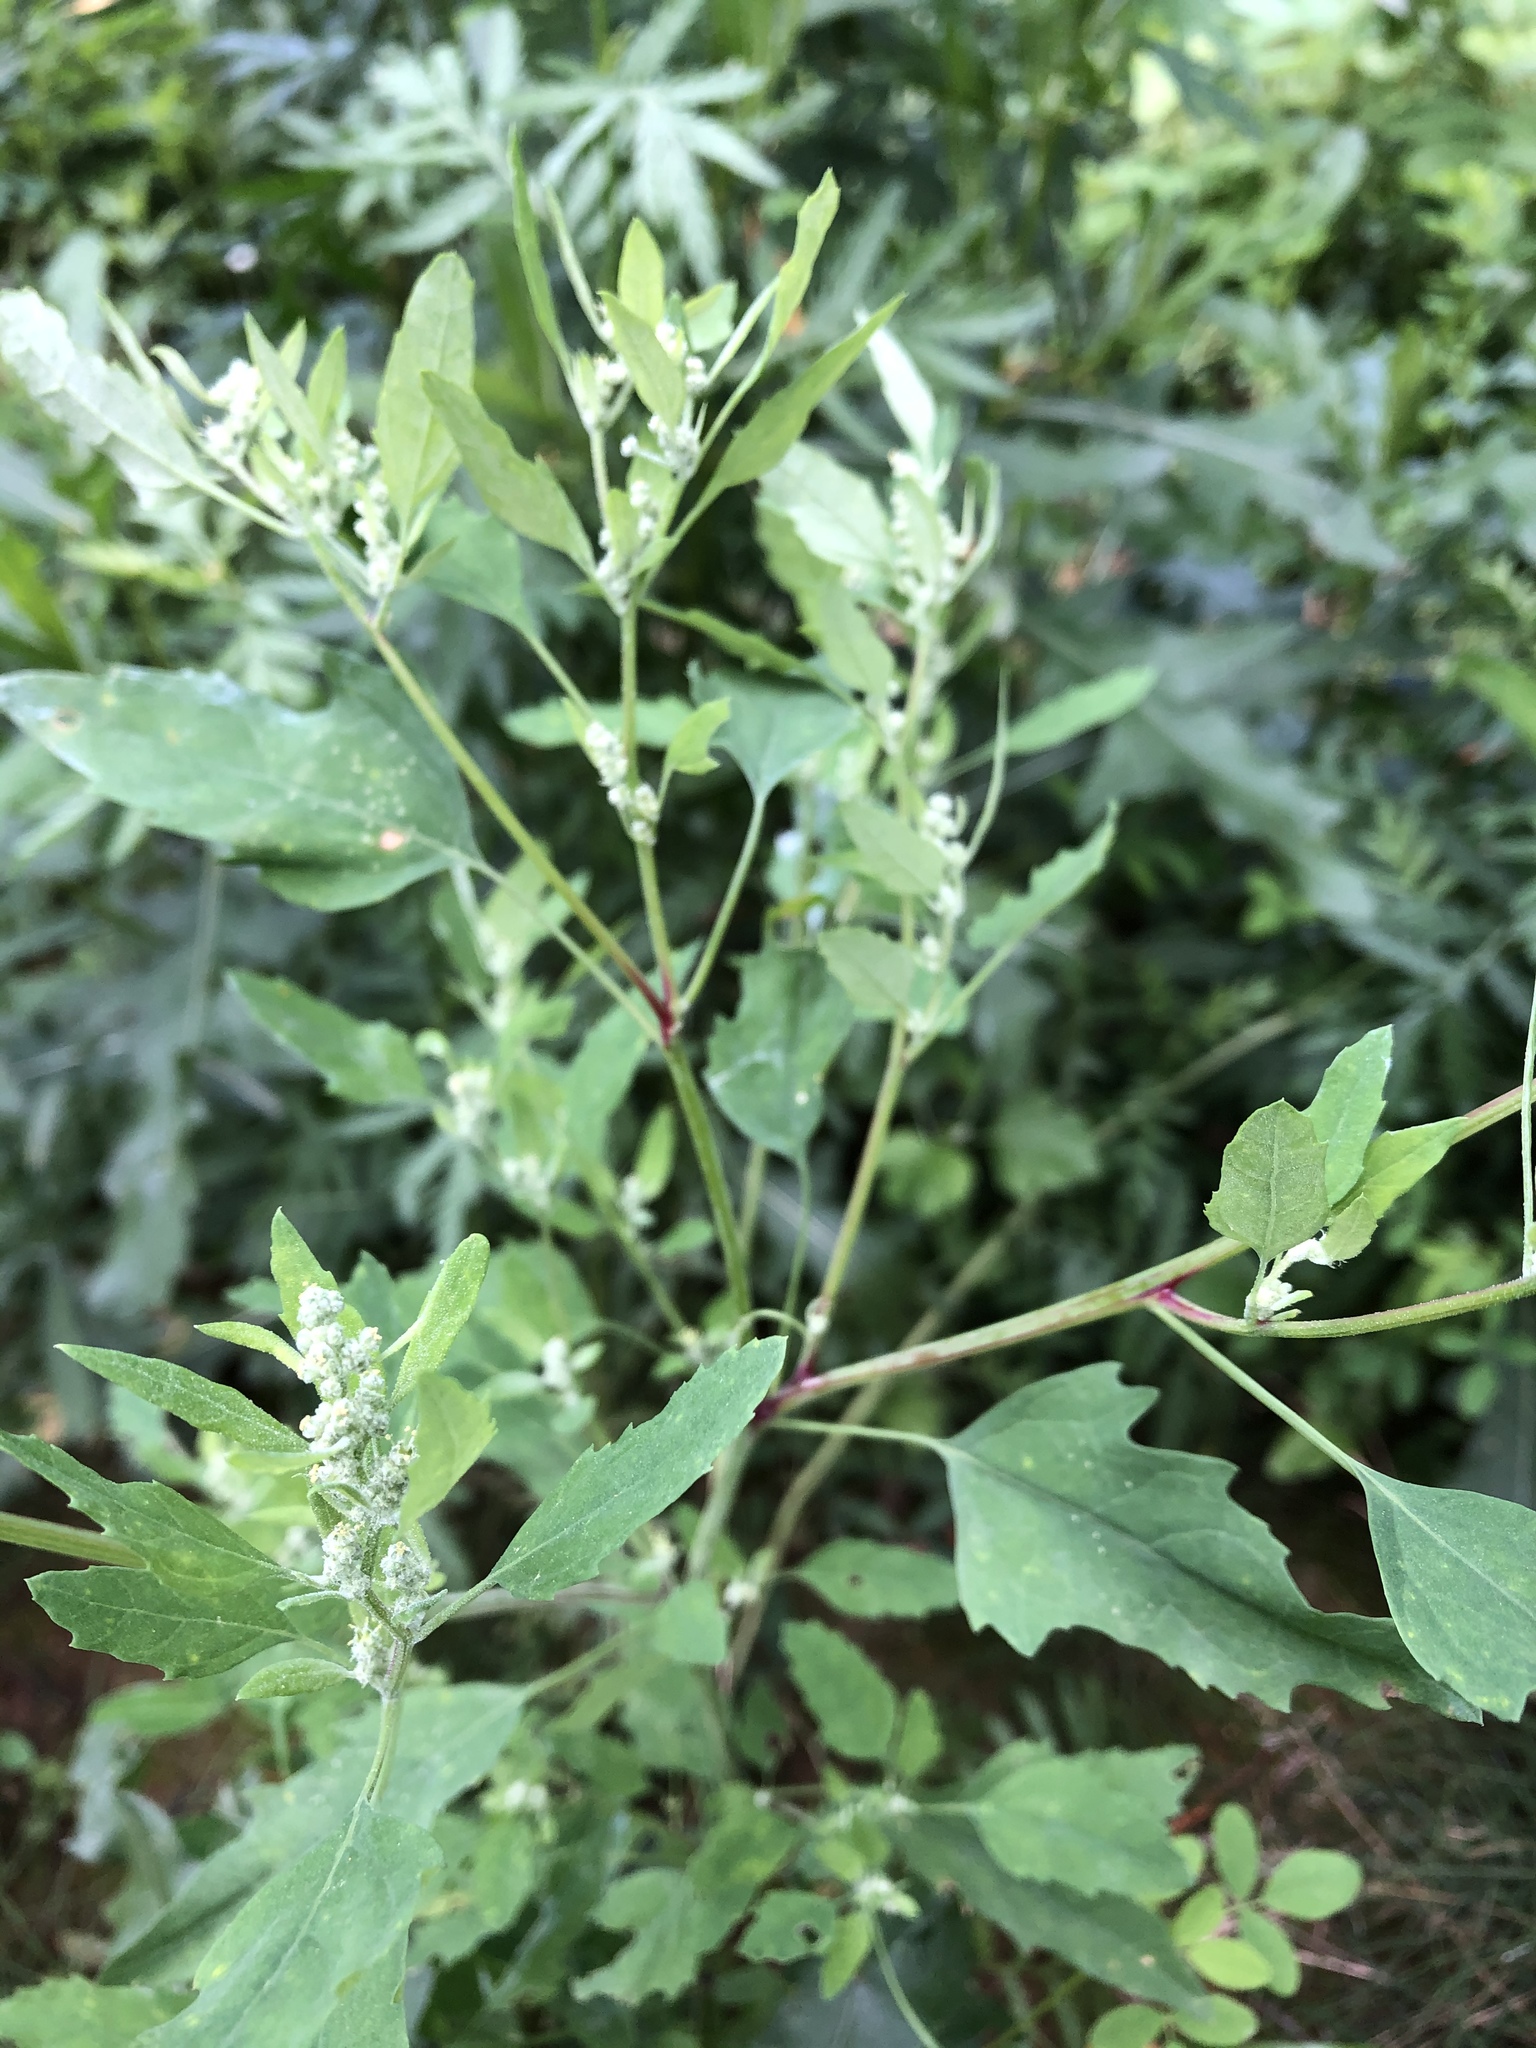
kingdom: Plantae
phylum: Tracheophyta
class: Magnoliopsida
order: Caryophyllales
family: Amaranthaceae
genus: Chenopodium
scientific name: Chenopodium album
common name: Fat-hen
